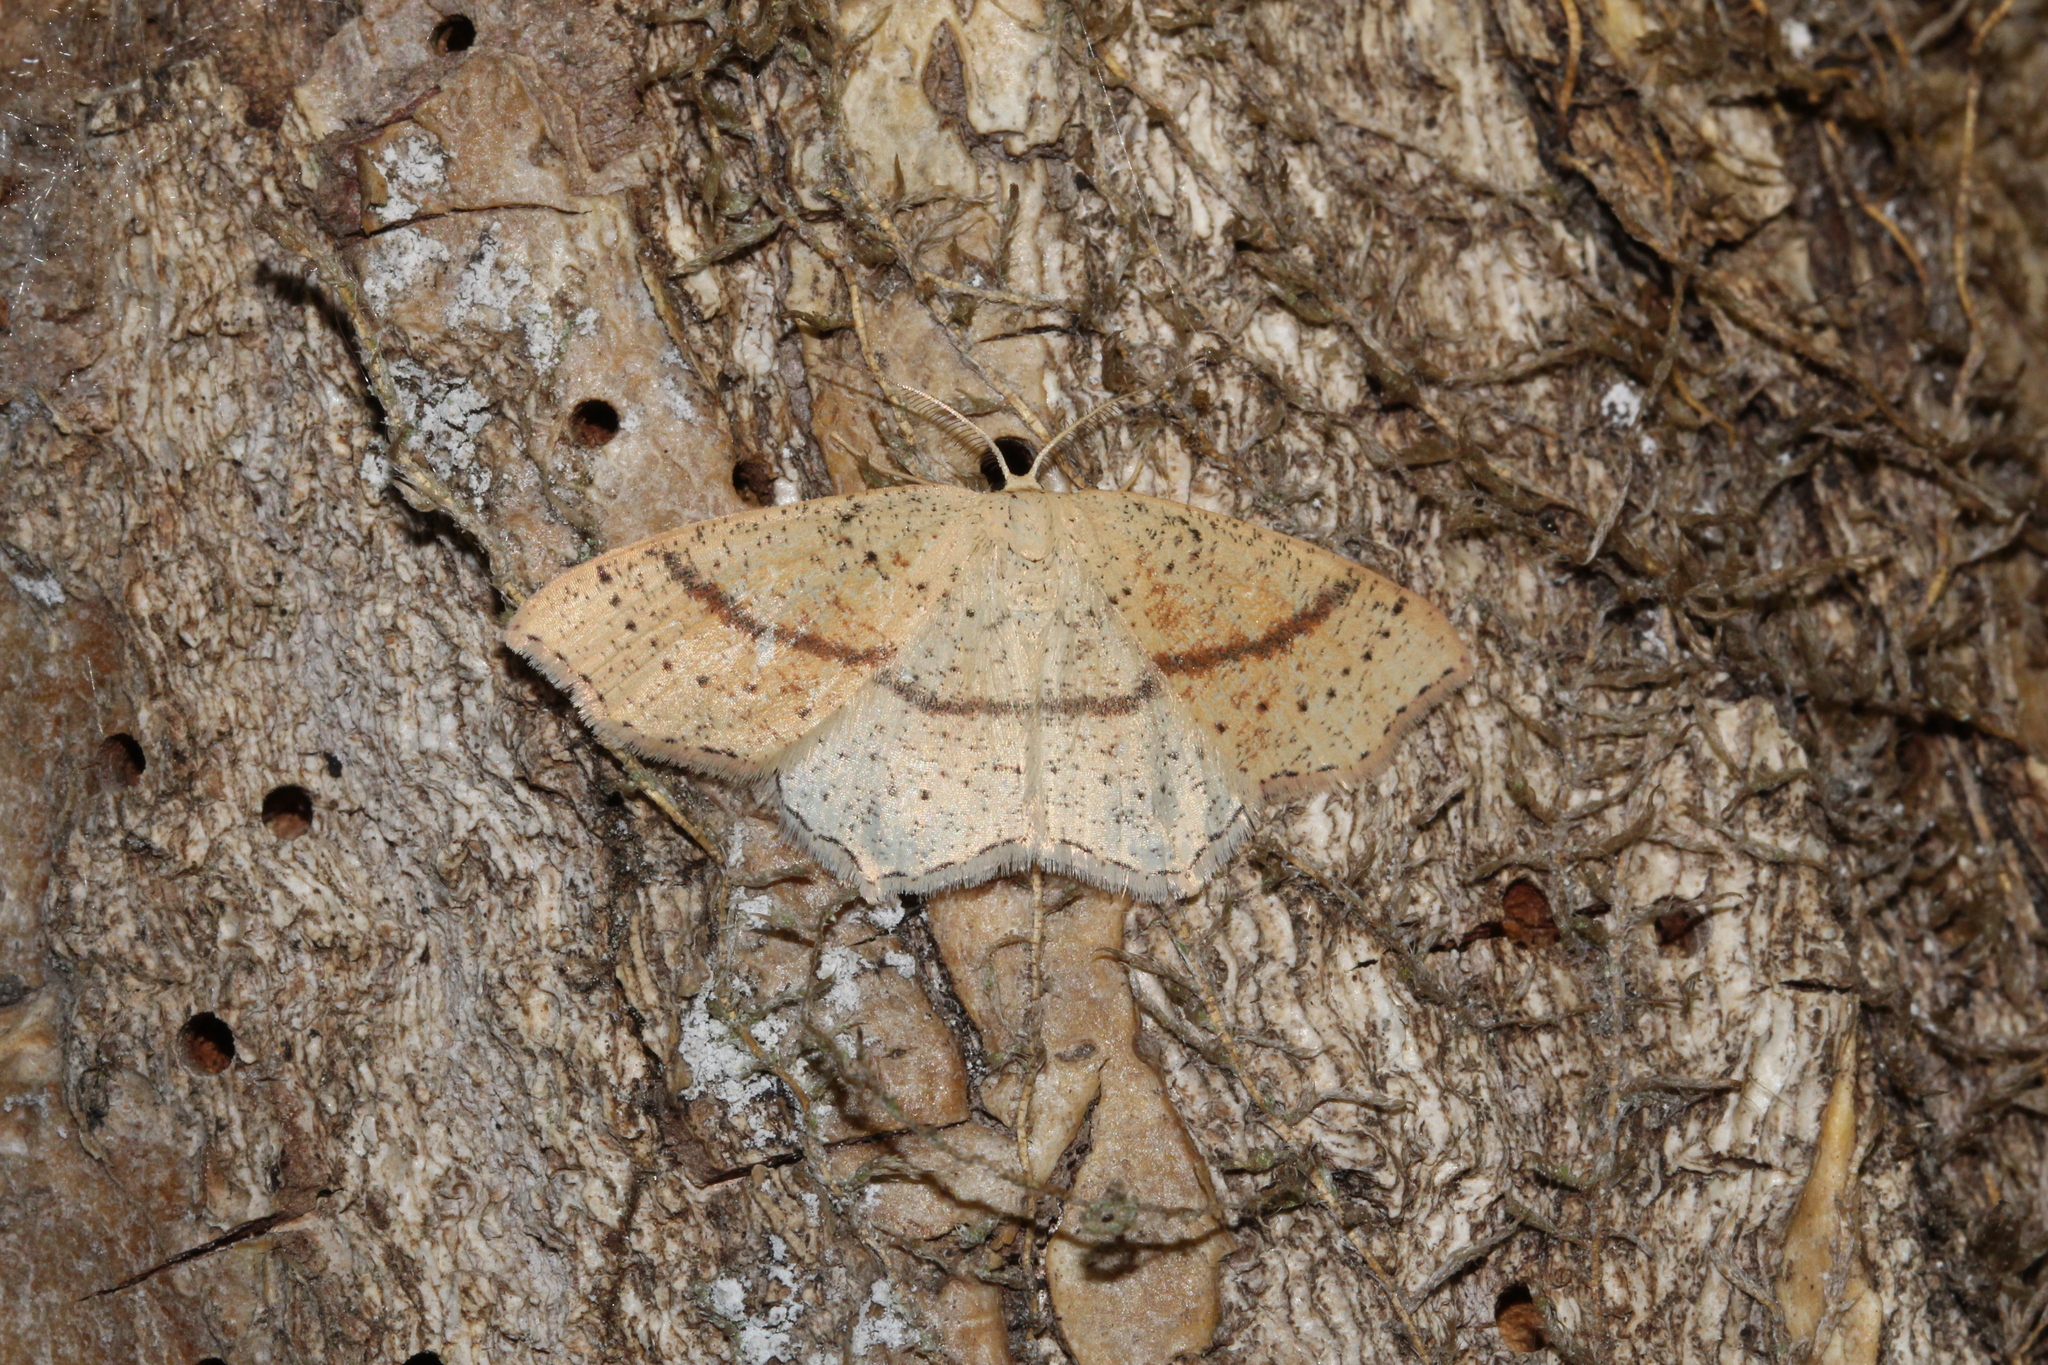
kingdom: Animalia
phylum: Arthropoda
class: Insecta
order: Lepidoptera
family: Geometridae
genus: Cyclophora
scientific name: Cyclophora punctaria
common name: Maiden's blush
